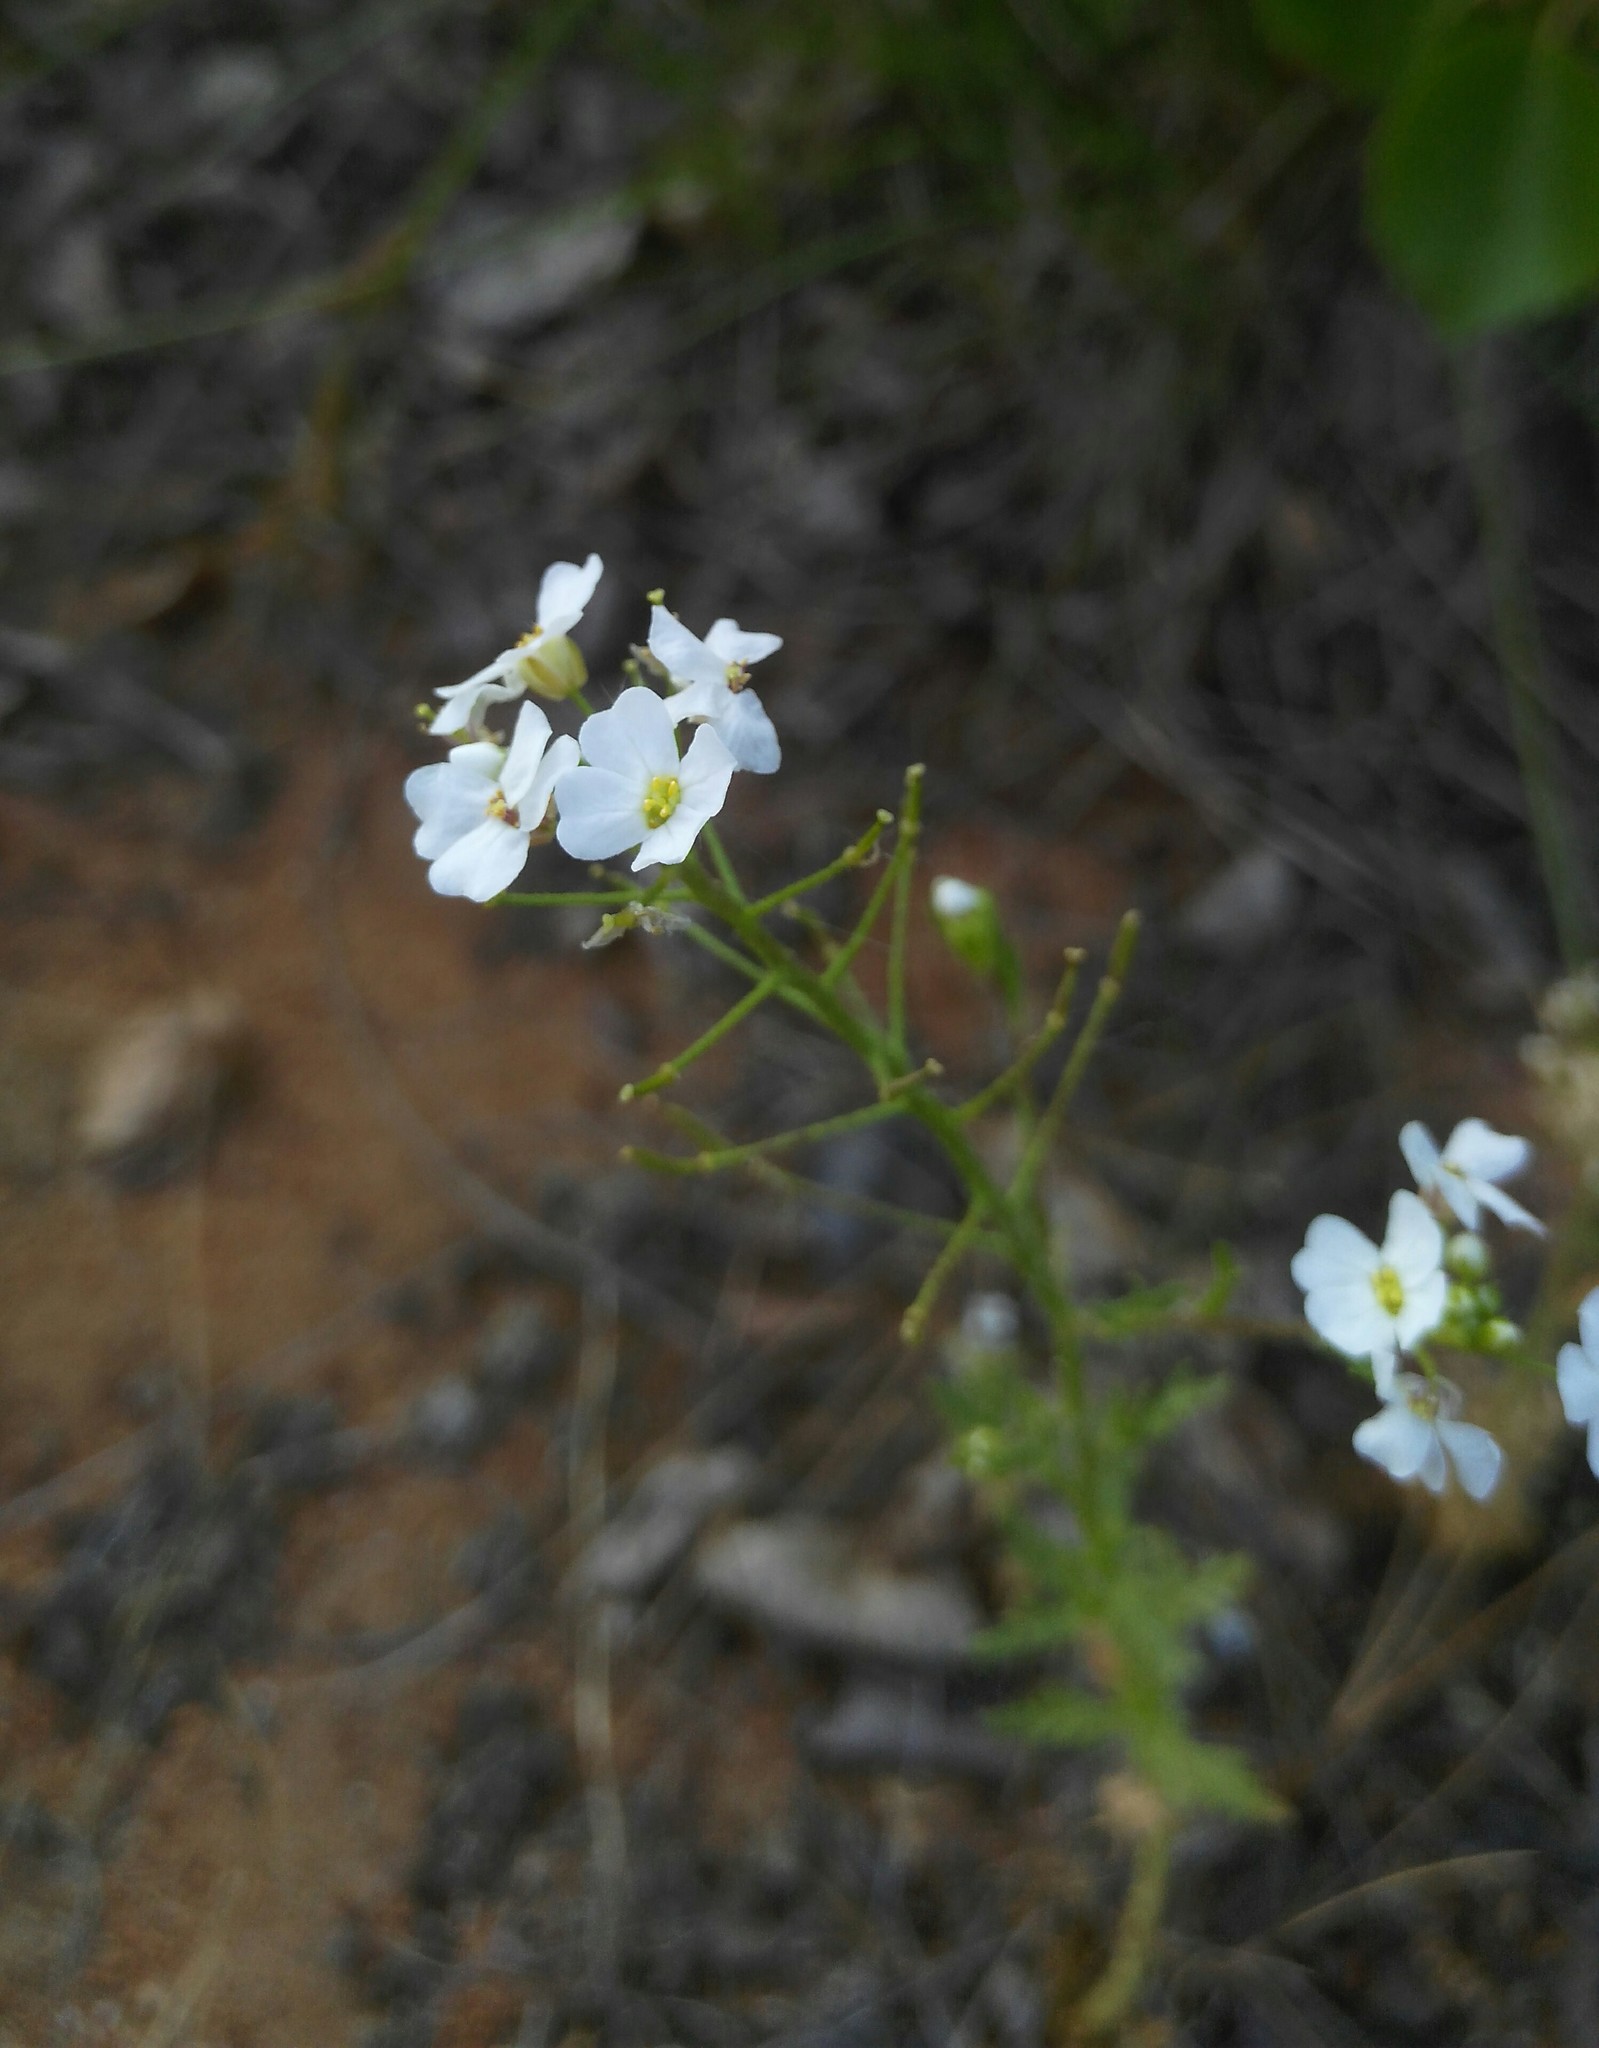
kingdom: Plantae
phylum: Tracheophyta
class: Magnoliopsida
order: Brassicales
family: Brassicaceae
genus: Dontostemon
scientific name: Dontostemon pinnatifidus
